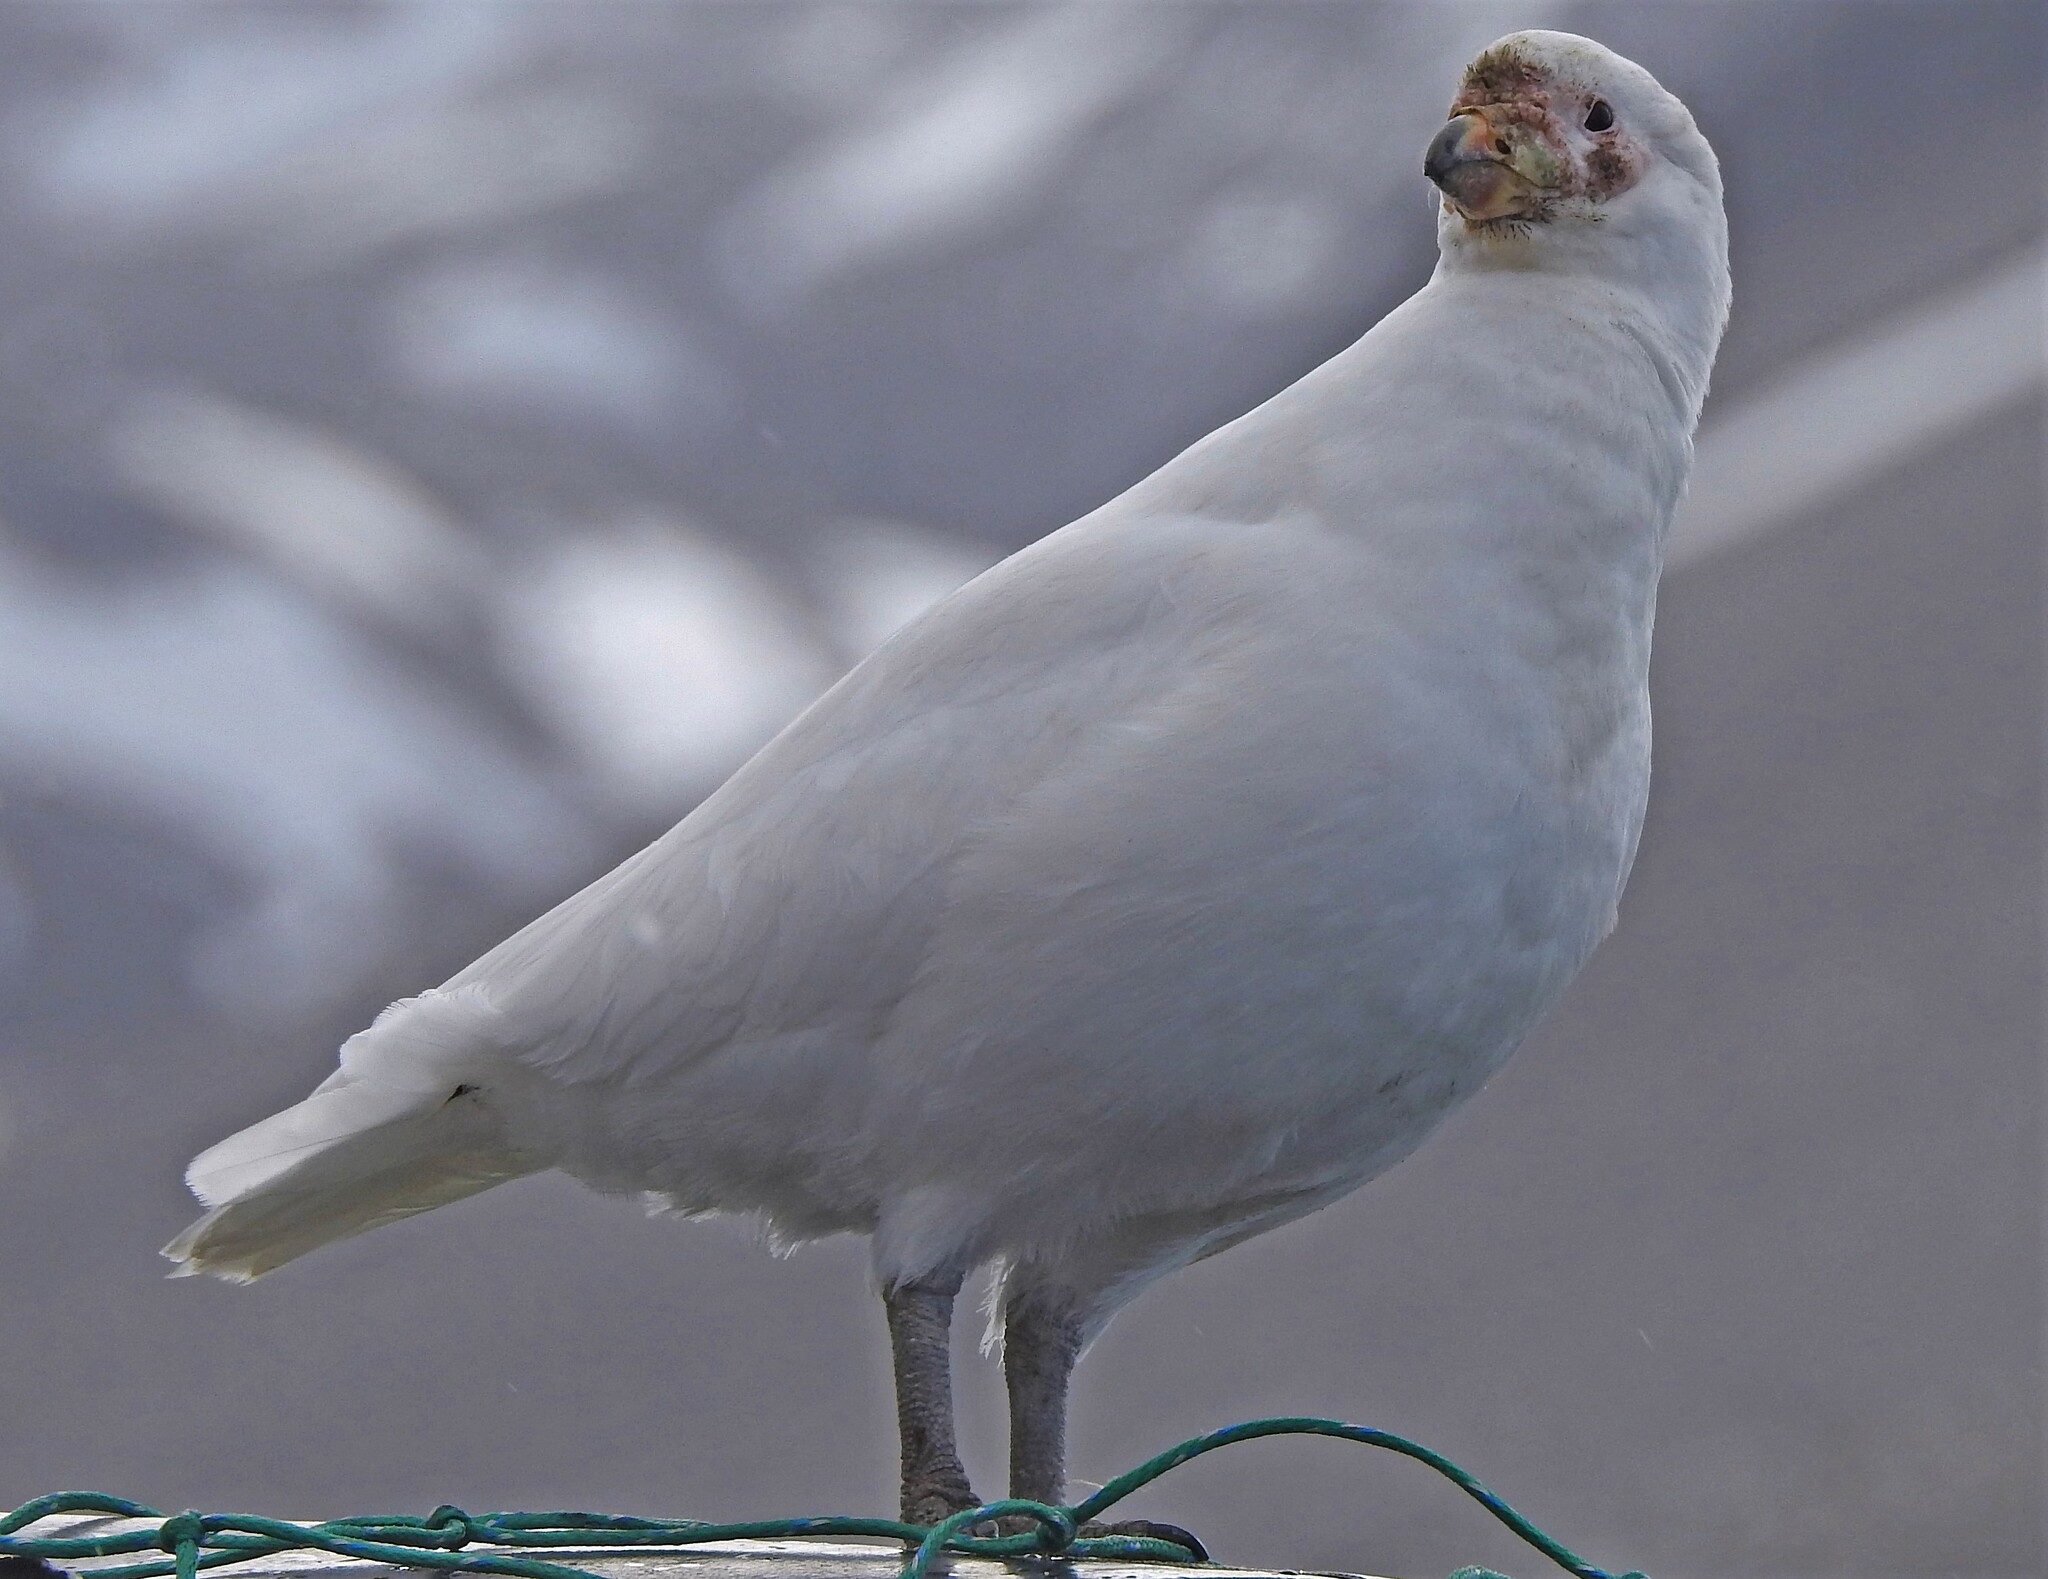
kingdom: Animalia
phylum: Chordata
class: Aves
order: Charadriiformes
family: Chionidae
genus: Chionis
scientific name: Chionis albus
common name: Snowy sheathbill
